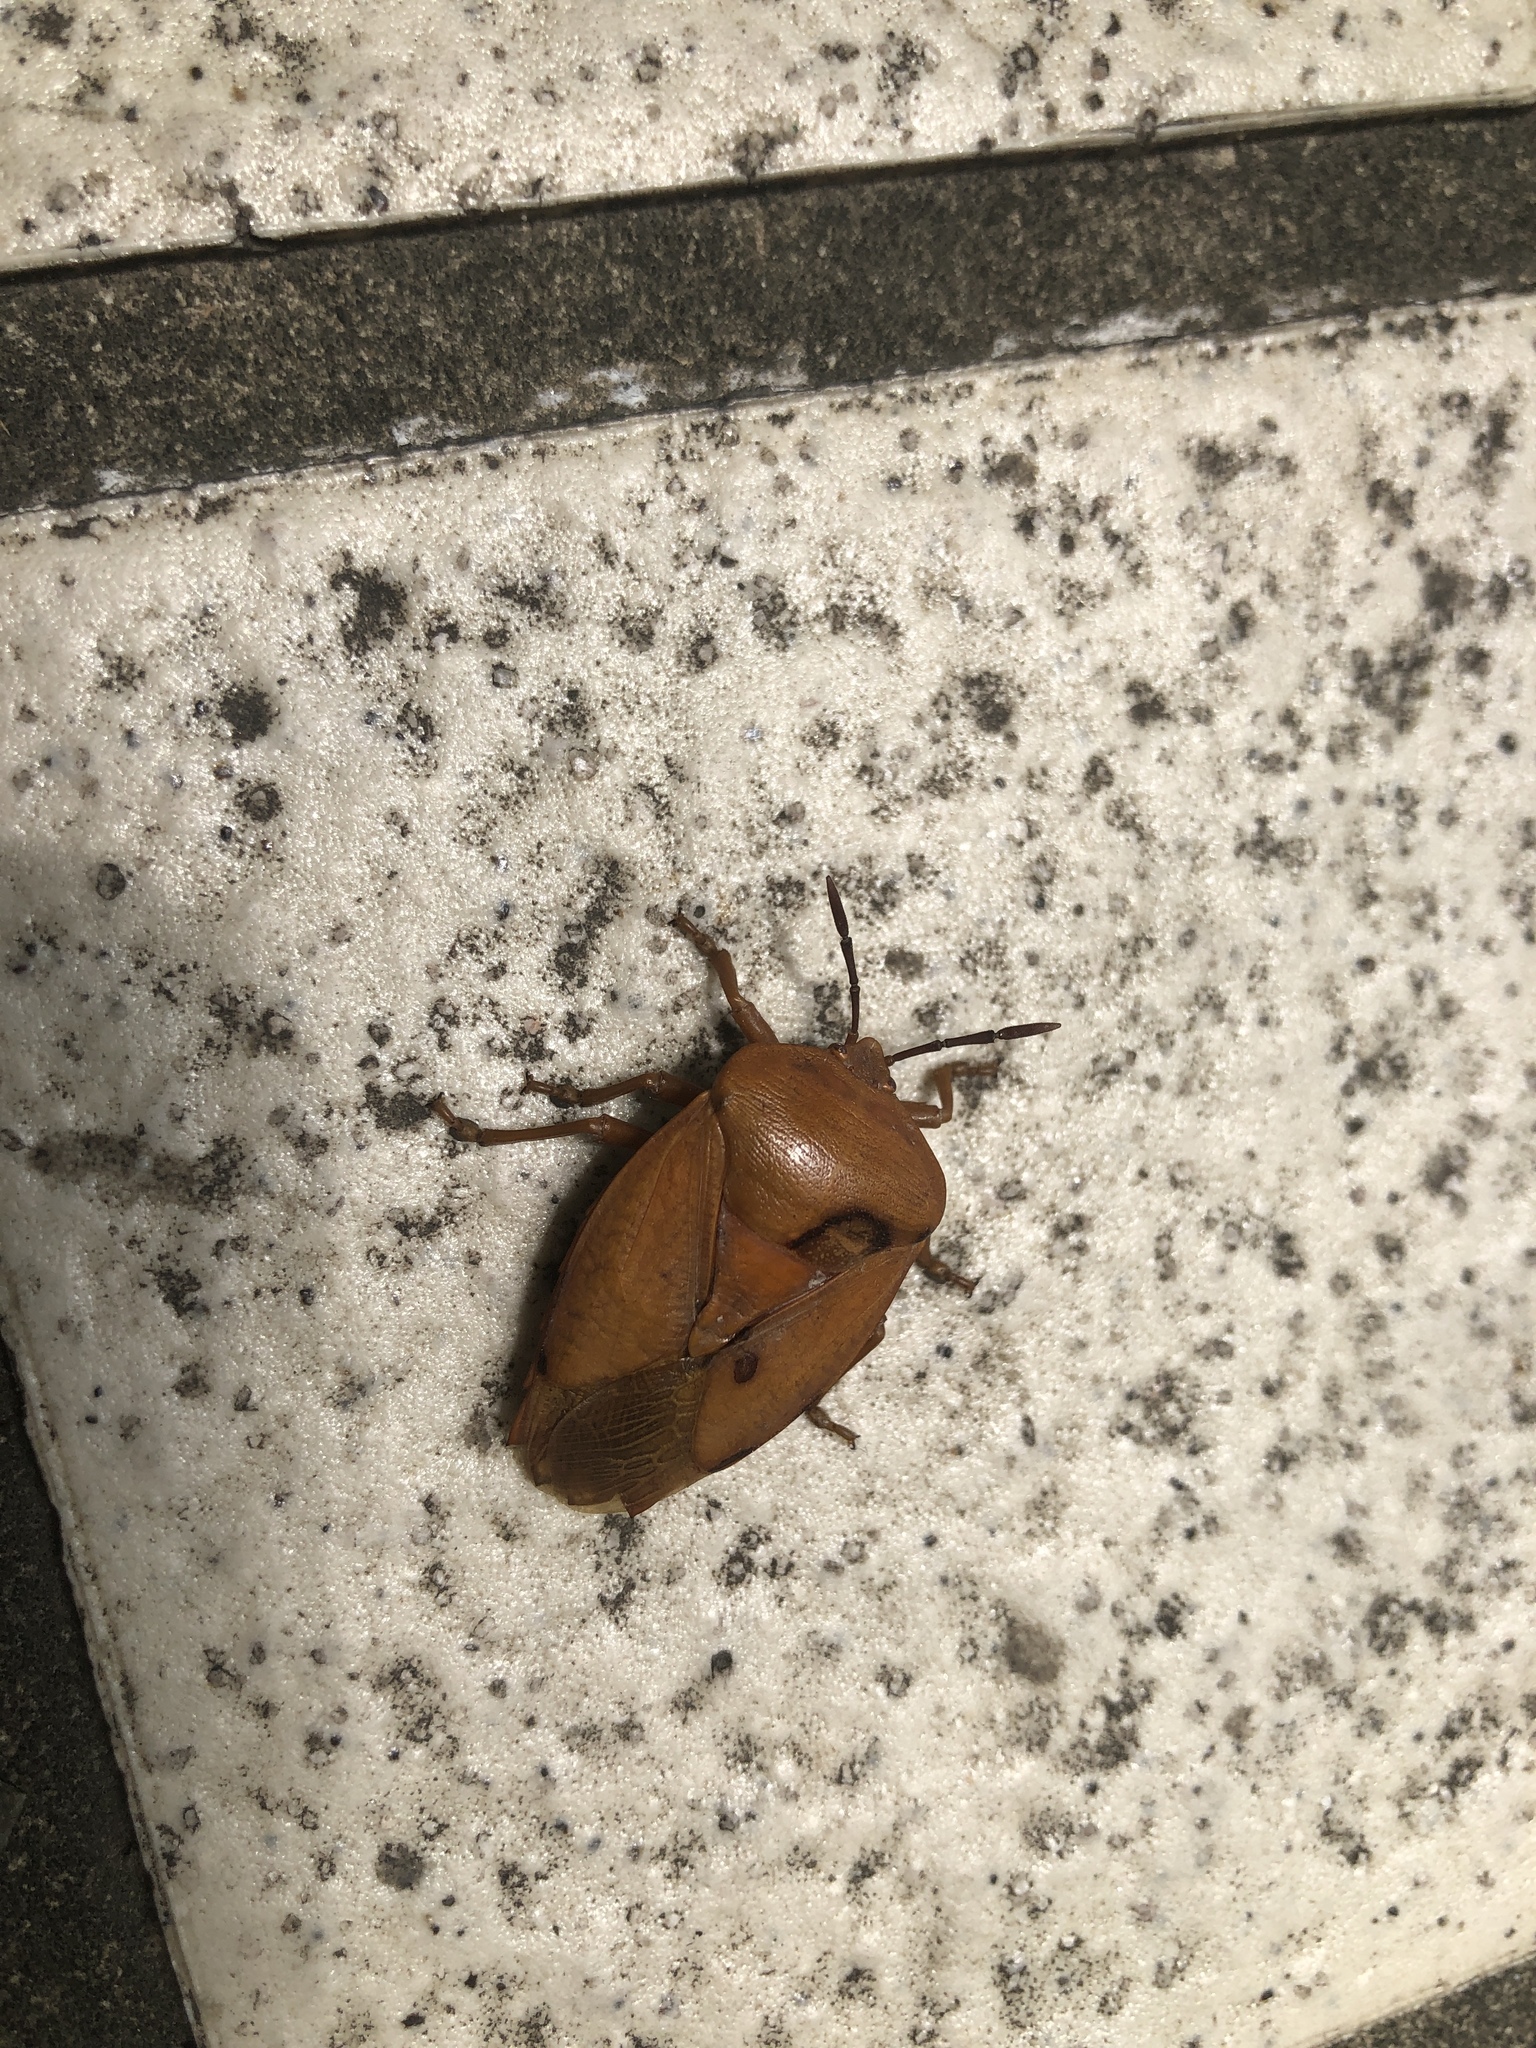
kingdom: Animalia
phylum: Arthropoda
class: Insecta
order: Hemiptera
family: Tessaratomidae
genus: Tessaratoma
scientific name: Tessaratoma papillosa
